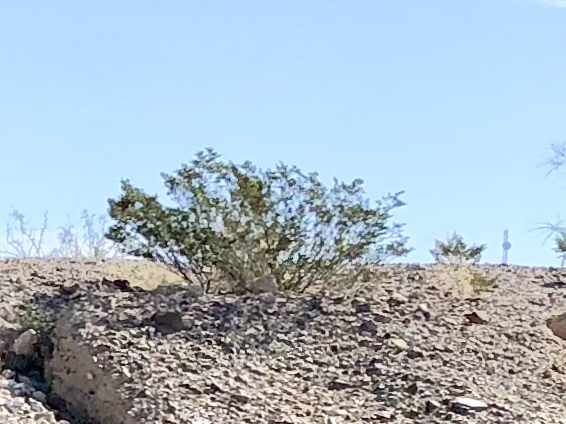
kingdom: Plantae
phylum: Tracheophyta
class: Magnoliopsida
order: Zygophyllales
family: Zygophyllaceae
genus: Larrea
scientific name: Larrea tridentata
